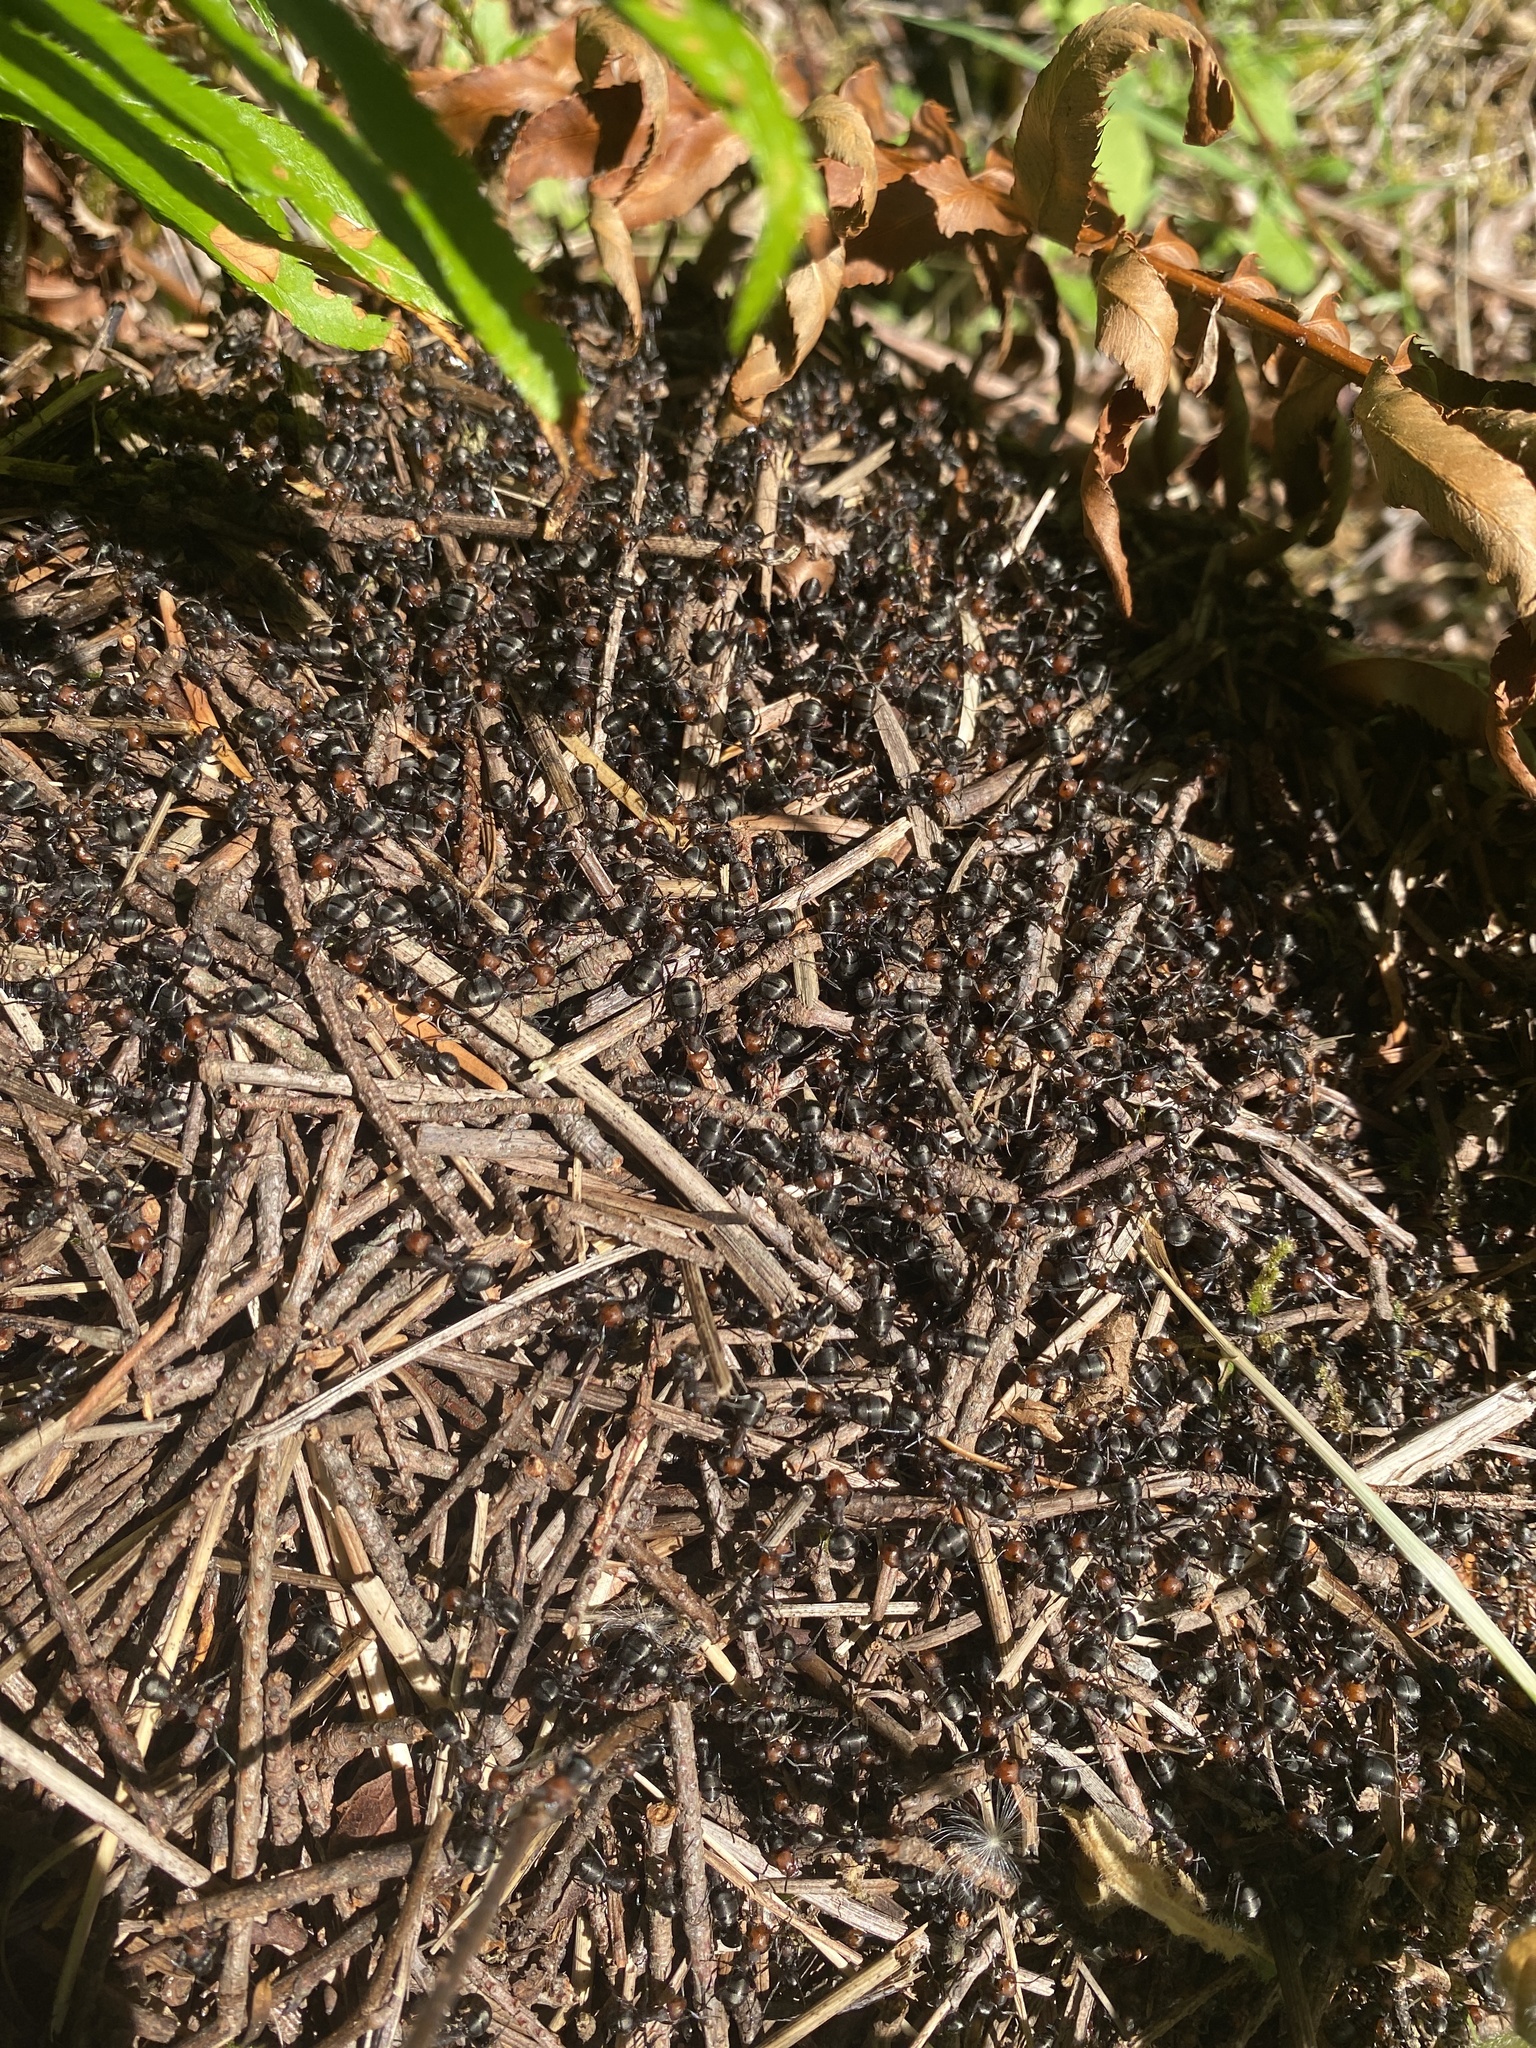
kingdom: Animalia
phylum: Arthropoda
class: Insecta
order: Hymenoptera
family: Formicidae
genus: Formica
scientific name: Formica obscuripes
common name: Western thatching ant
